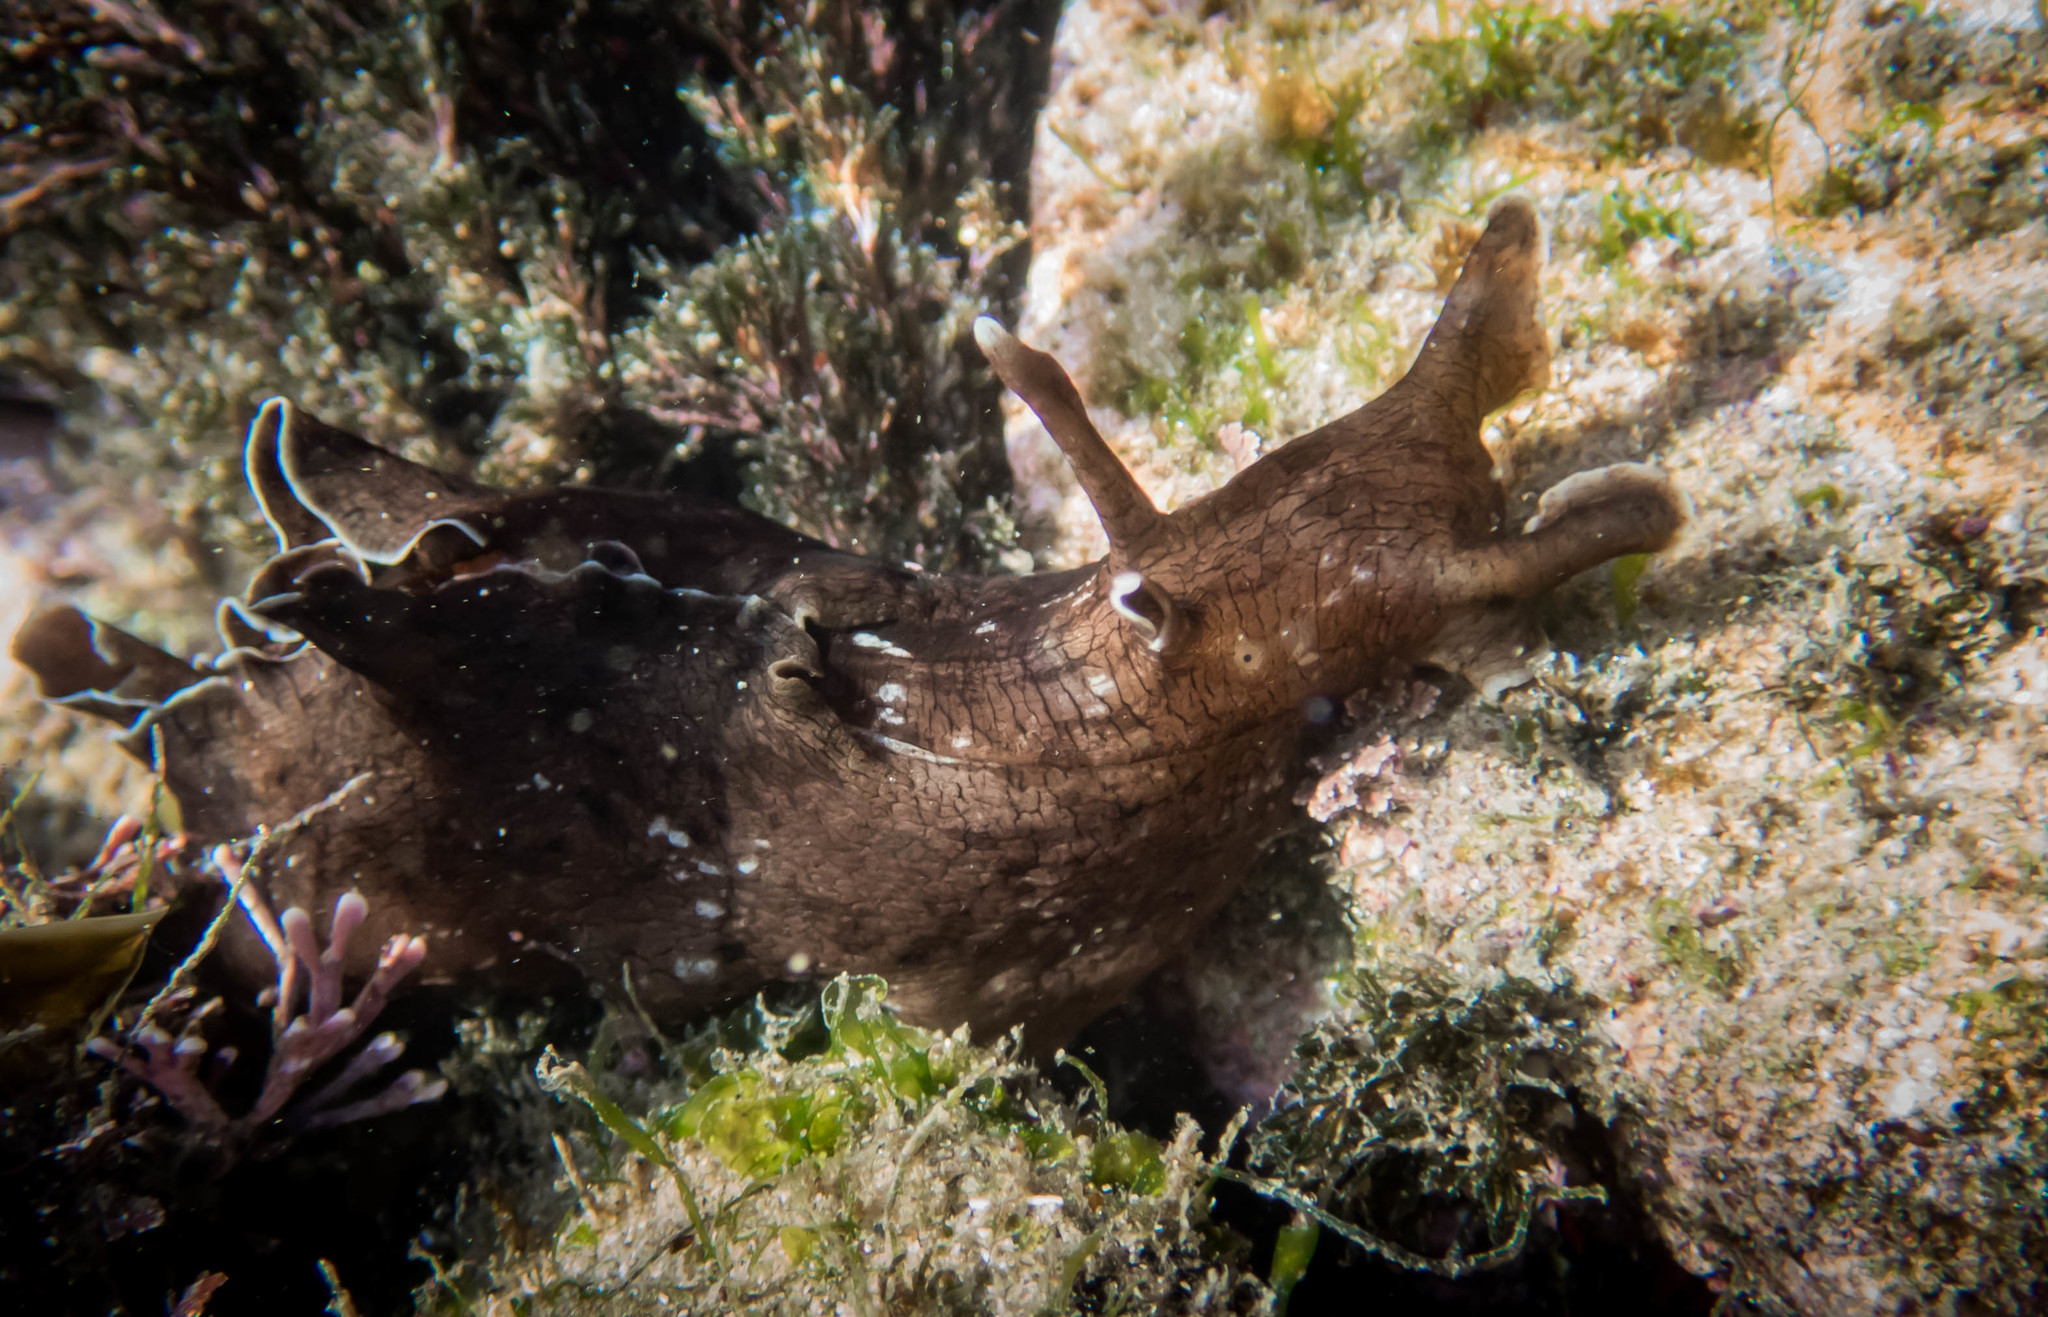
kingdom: Animalia
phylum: Mollusca
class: Gastropoda
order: Aplysiida
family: Aplysiidae
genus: Aplysia
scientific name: Aplysia sydneyensis
